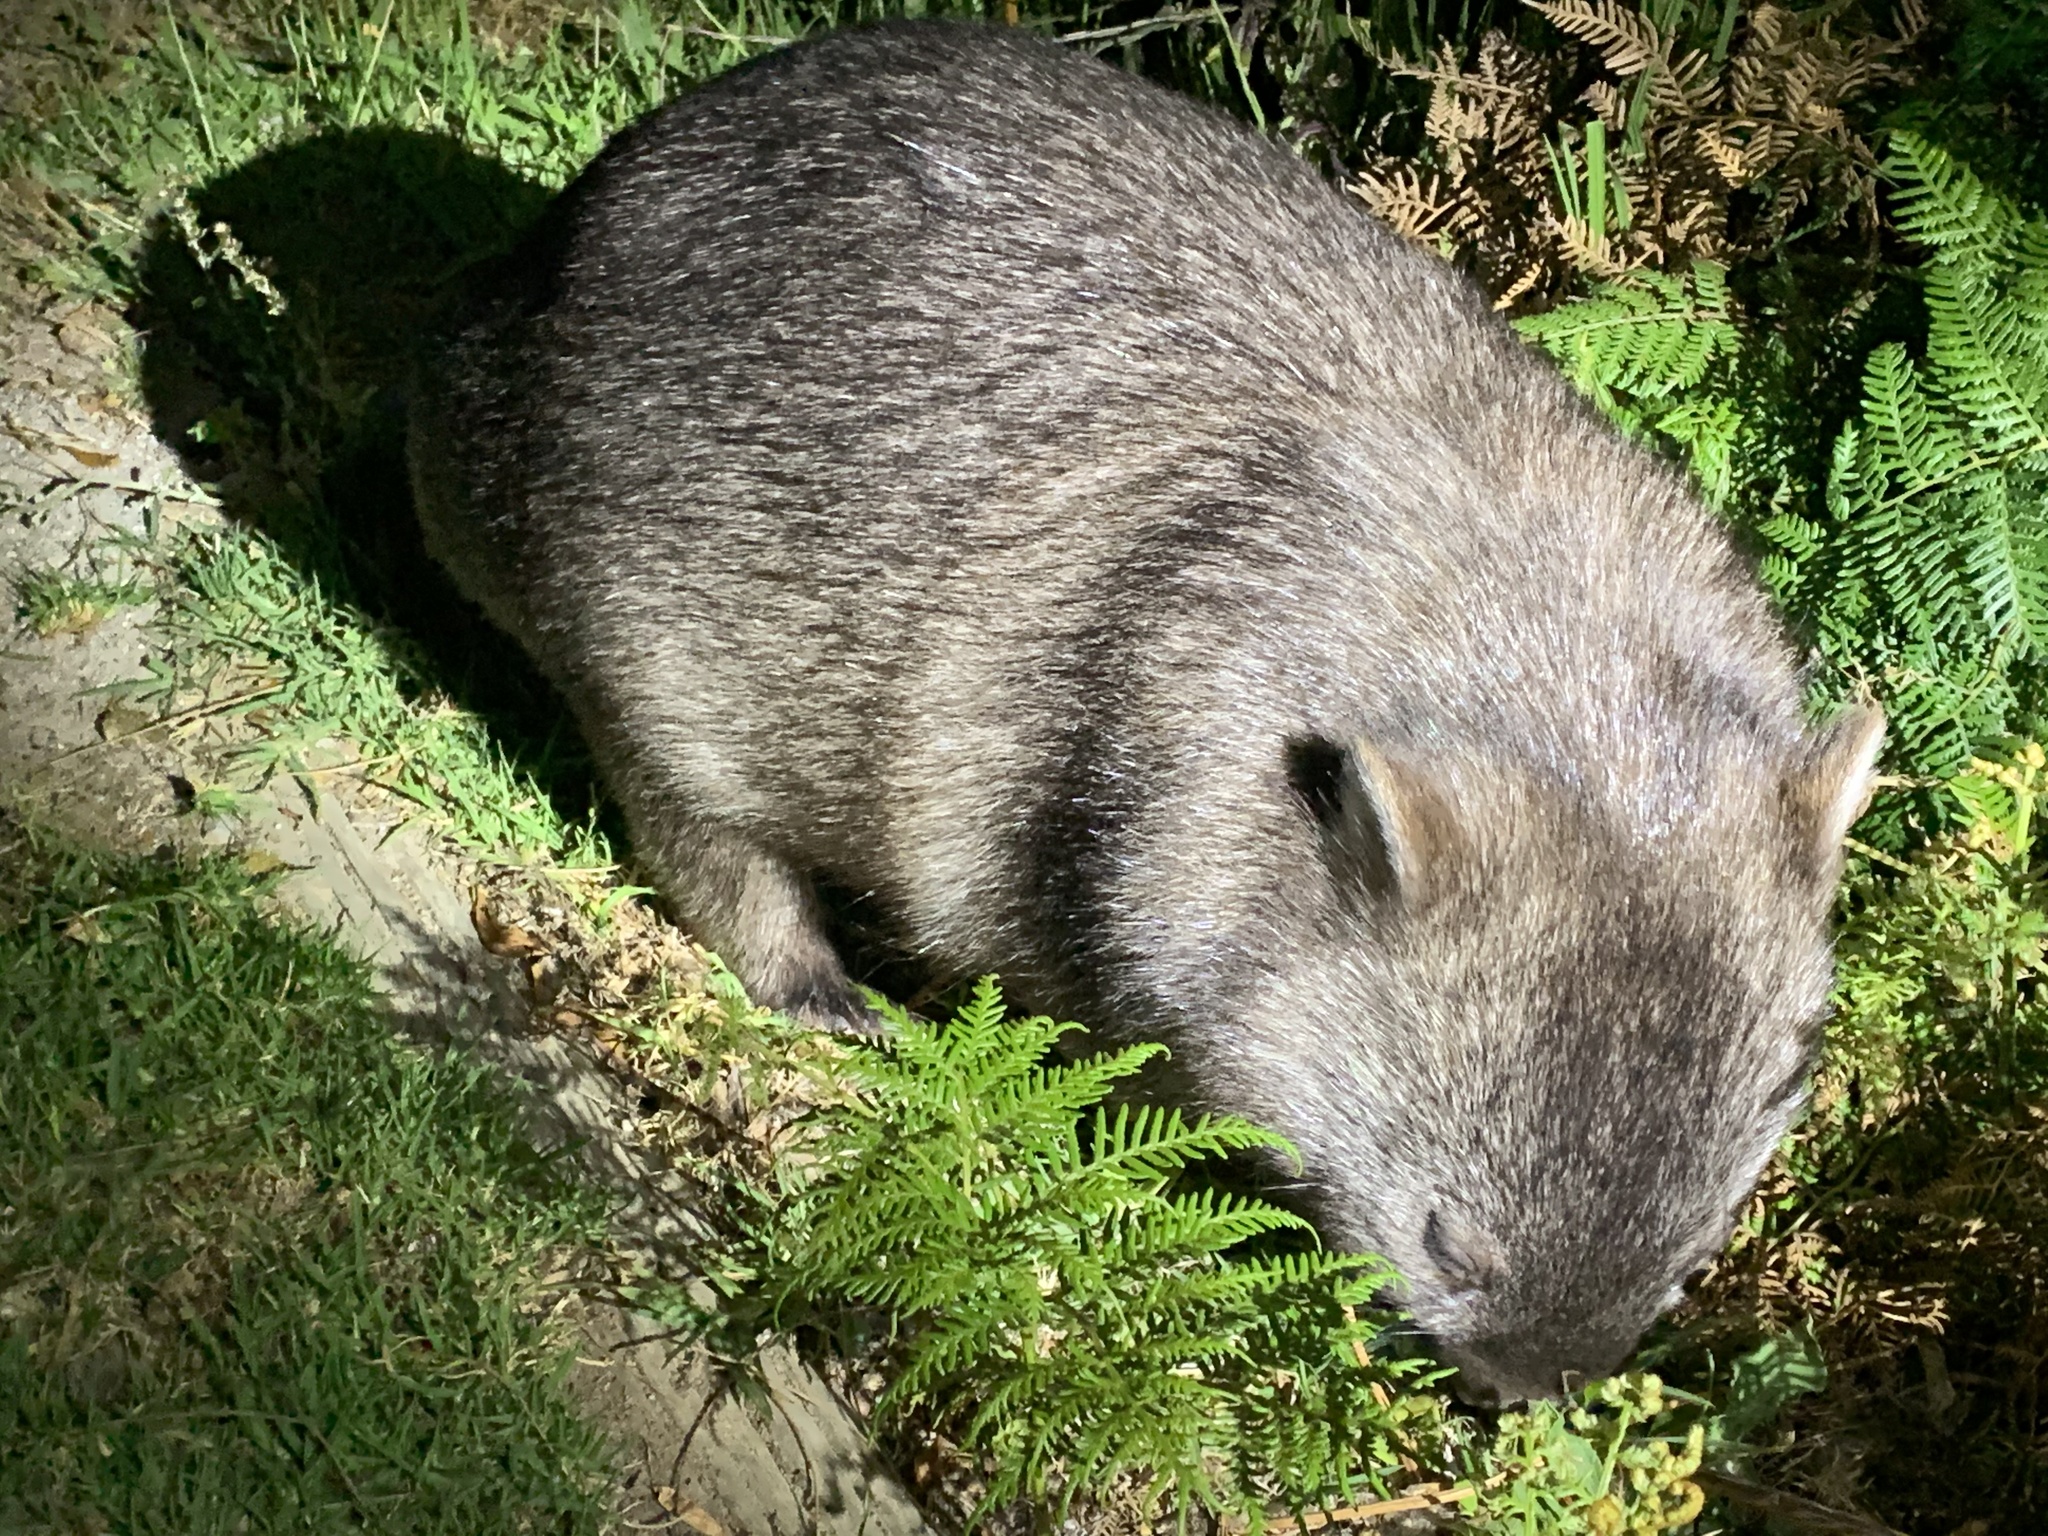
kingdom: Animalia
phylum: Chordata
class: Mammalia
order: Diprotodontia
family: Vombatidae
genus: Vombatus
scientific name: Vombatus ursinus
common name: Common wombat
